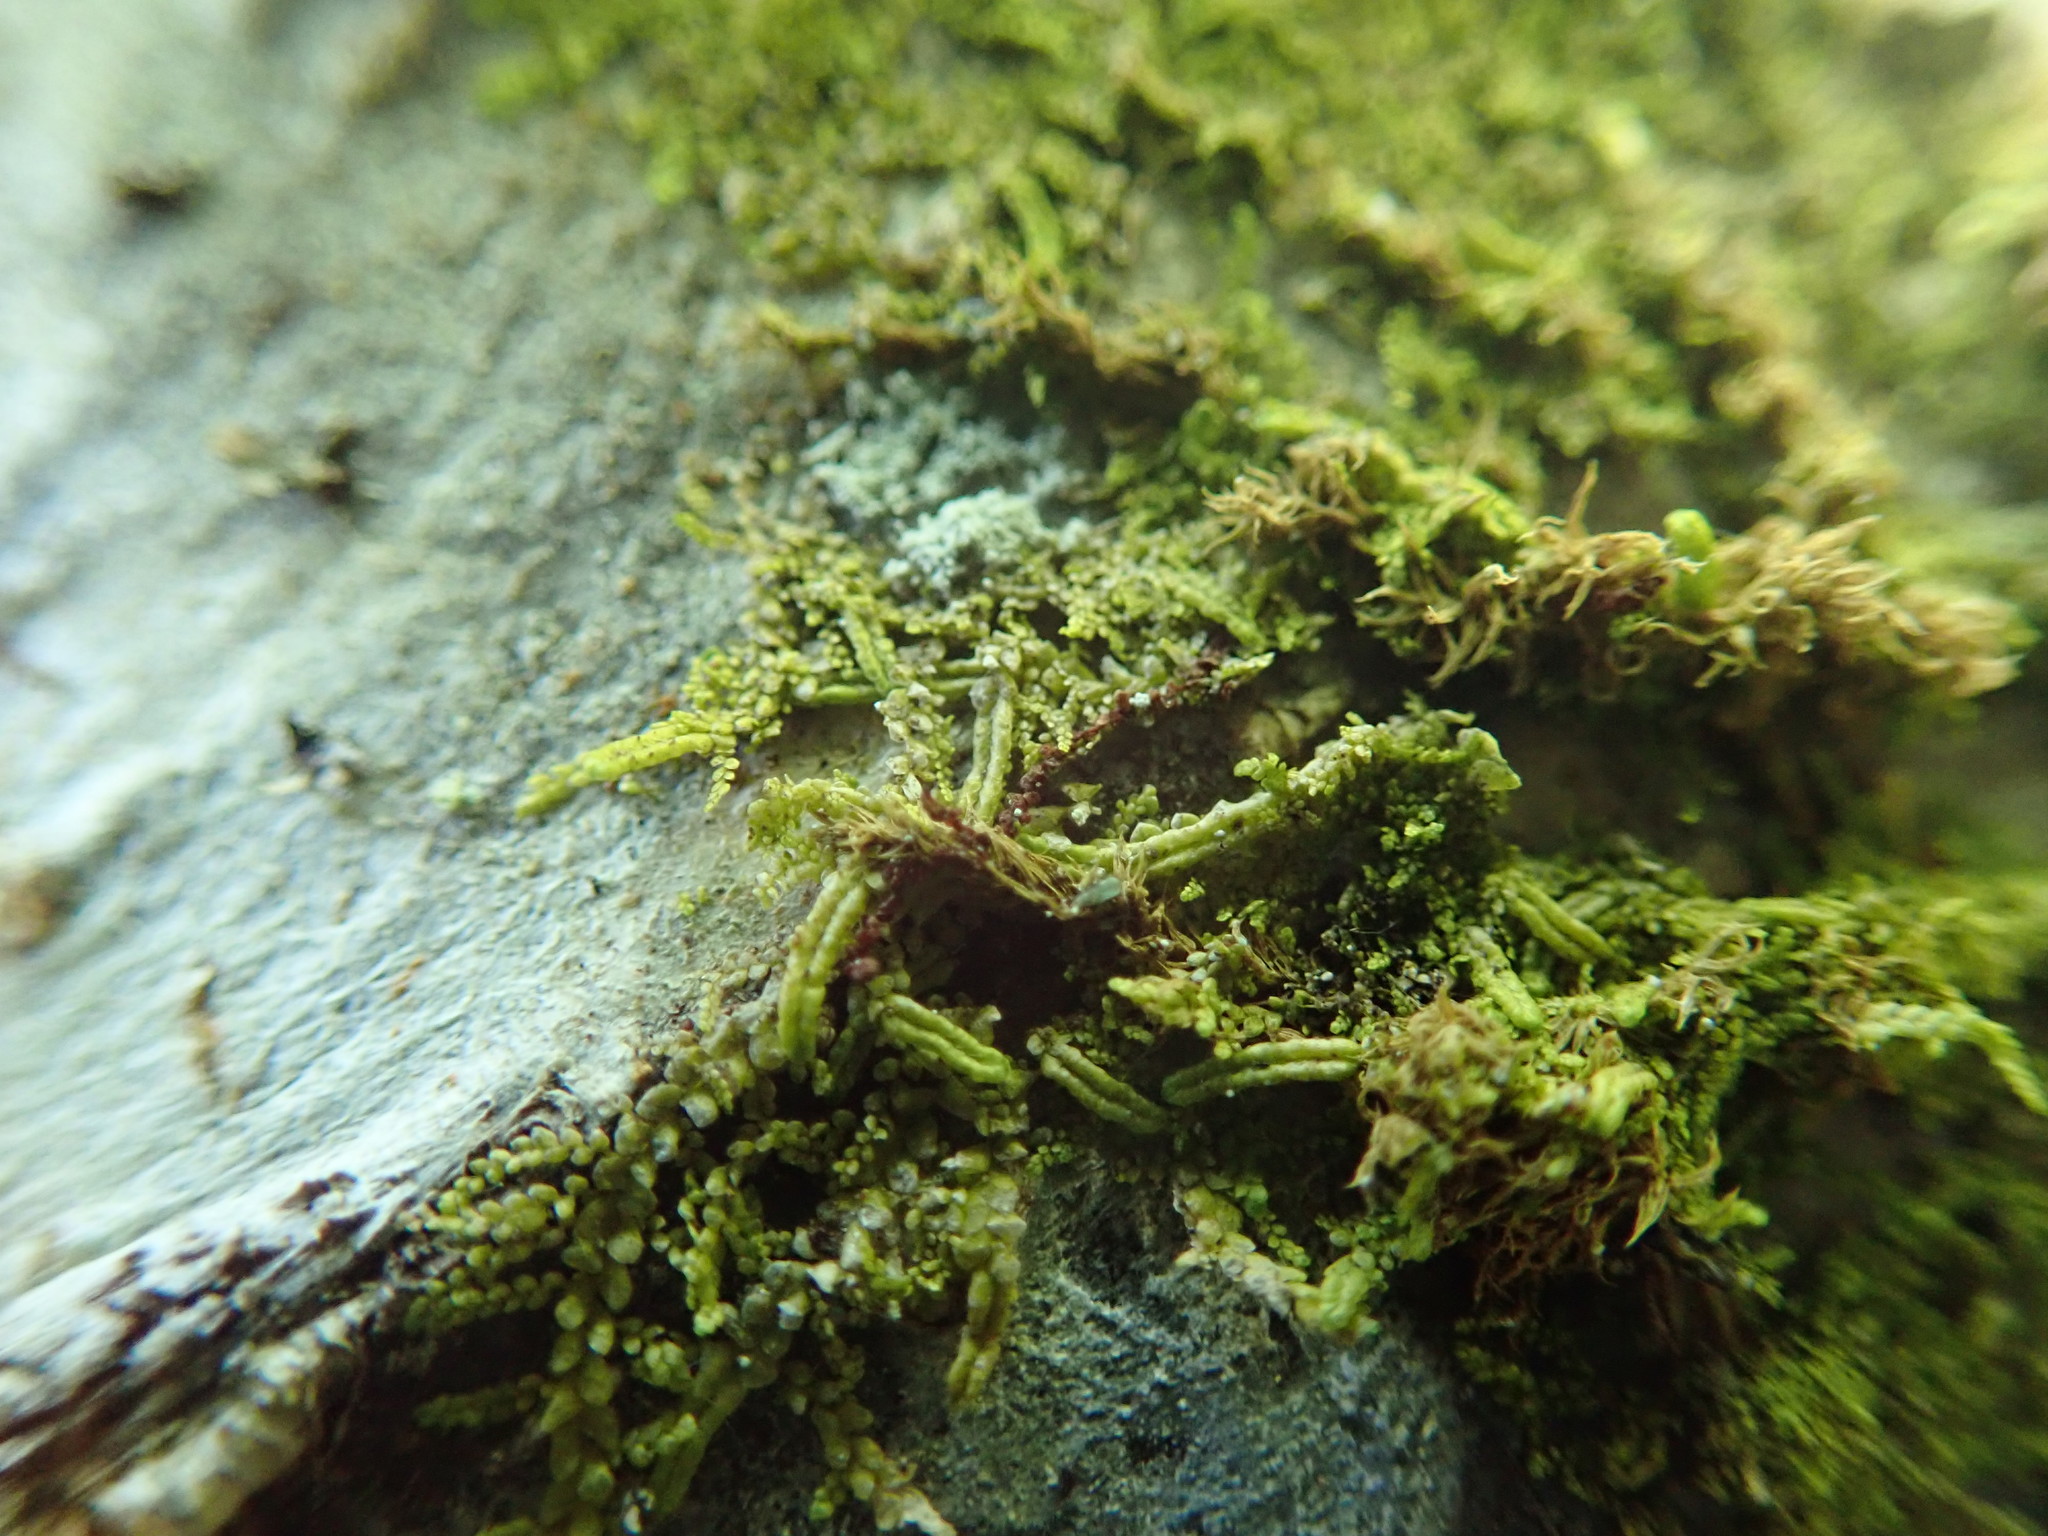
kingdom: Plantae
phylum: Marchantiophyta
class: Jungermanniopsida
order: Porellales
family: Radulaceae
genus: Radula
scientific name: Radula bolanderi
